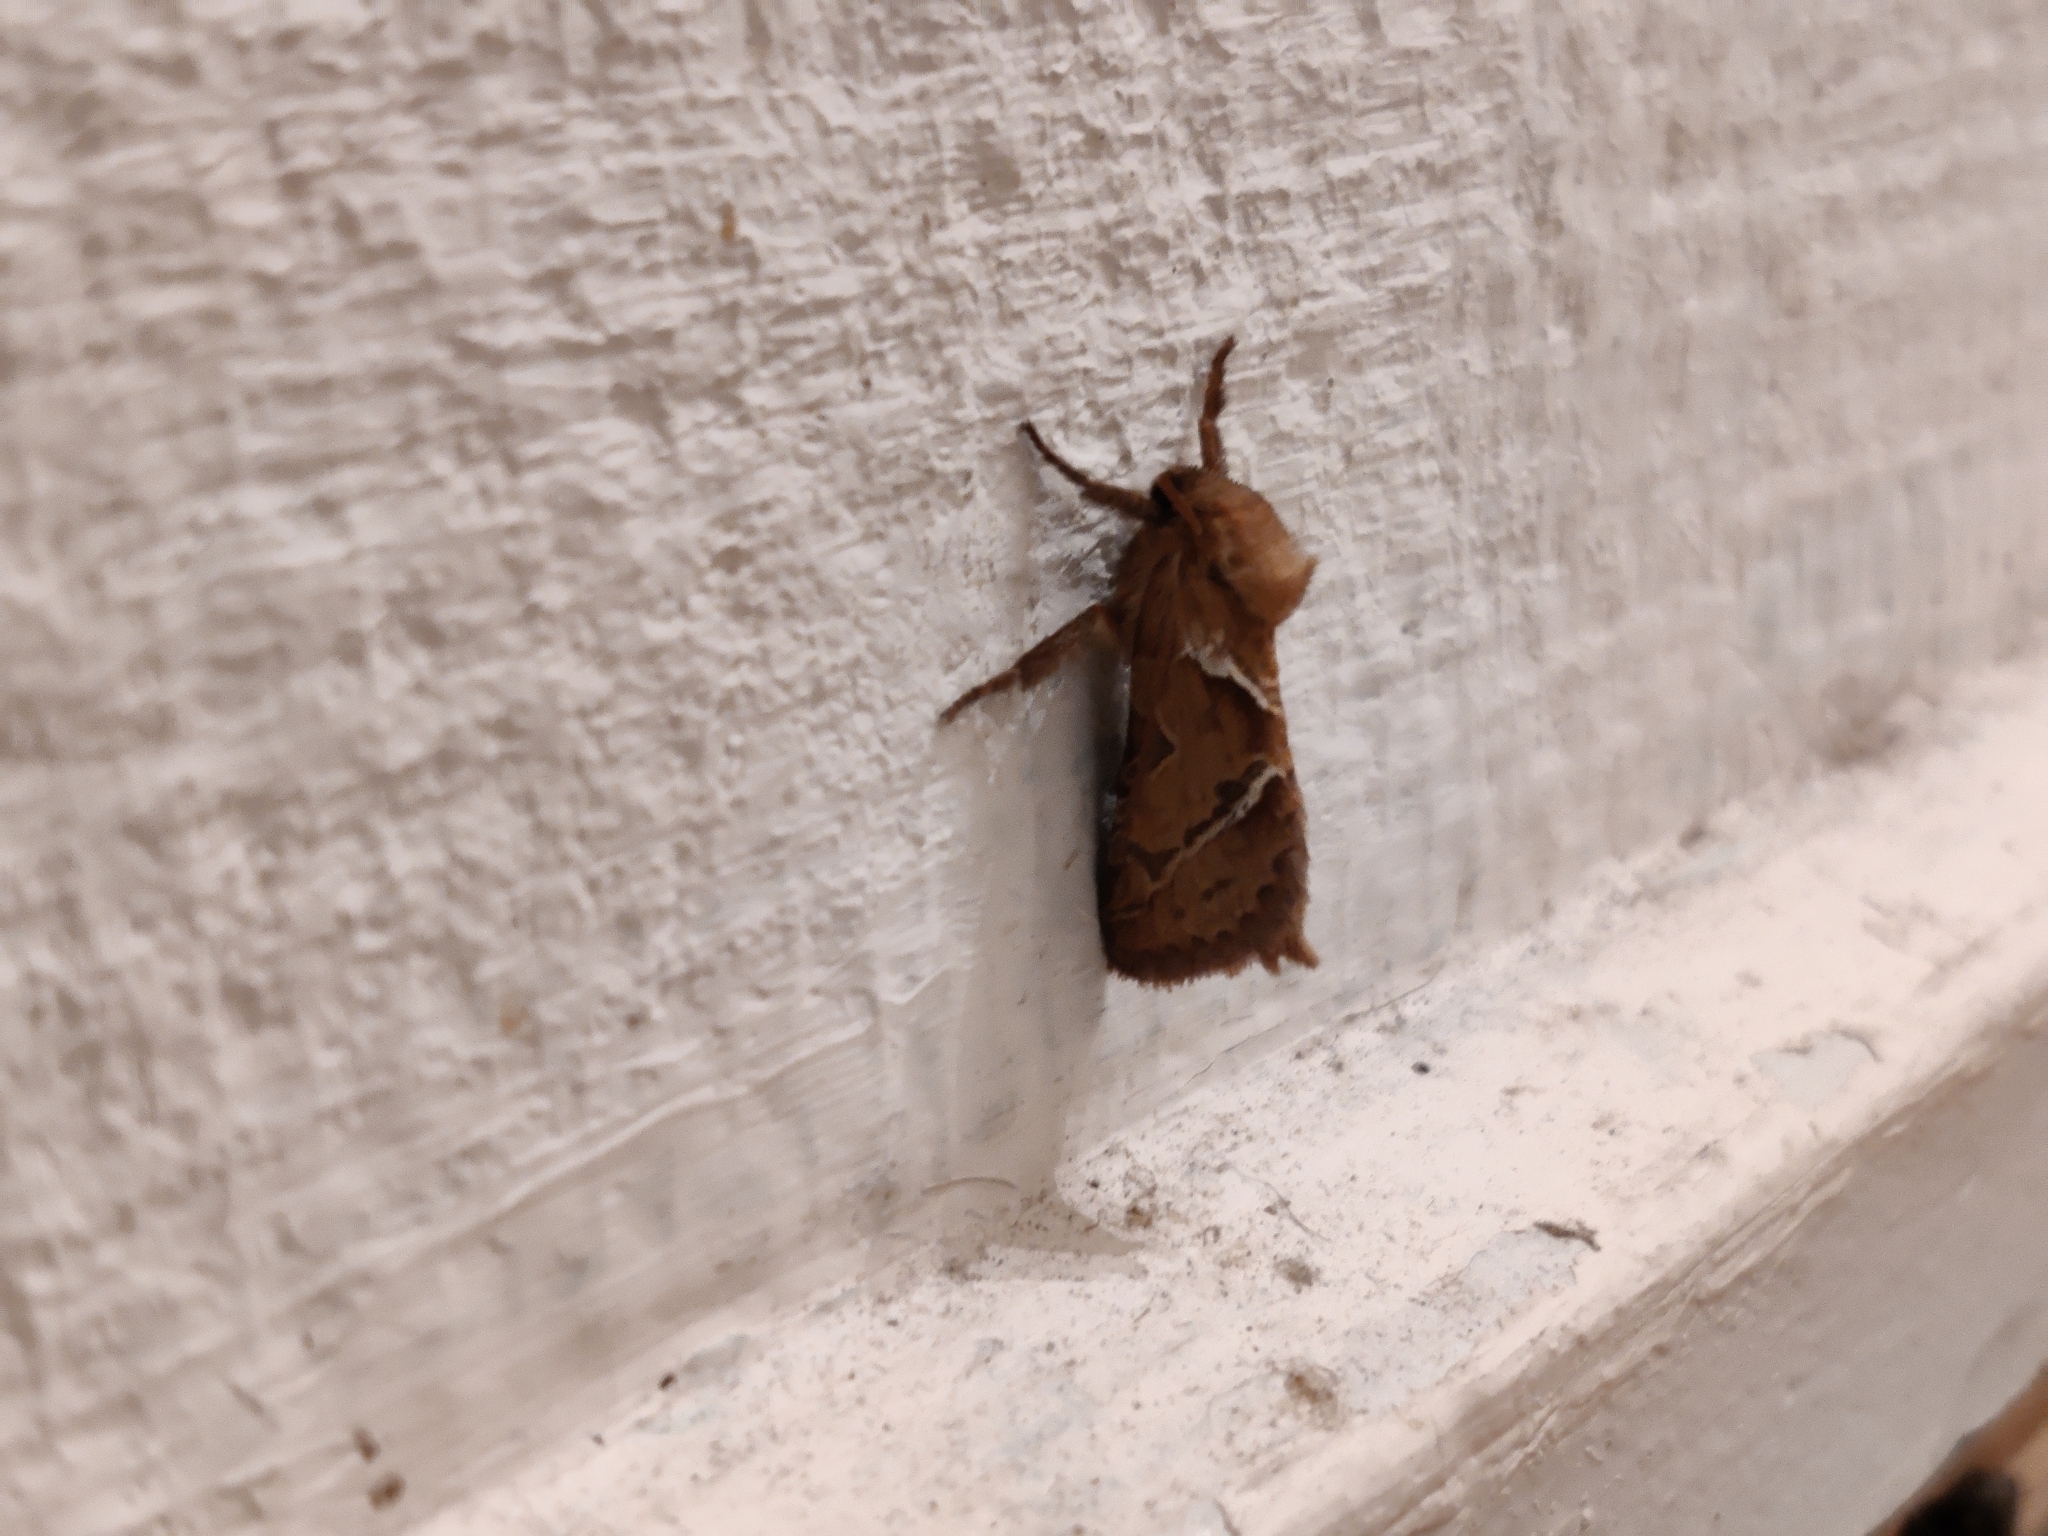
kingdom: Animalia
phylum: Arthropoda
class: Insecta
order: Lepidoptera
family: Hepialidae
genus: Triodia
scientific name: Triodia sylvina
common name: Orange swift
